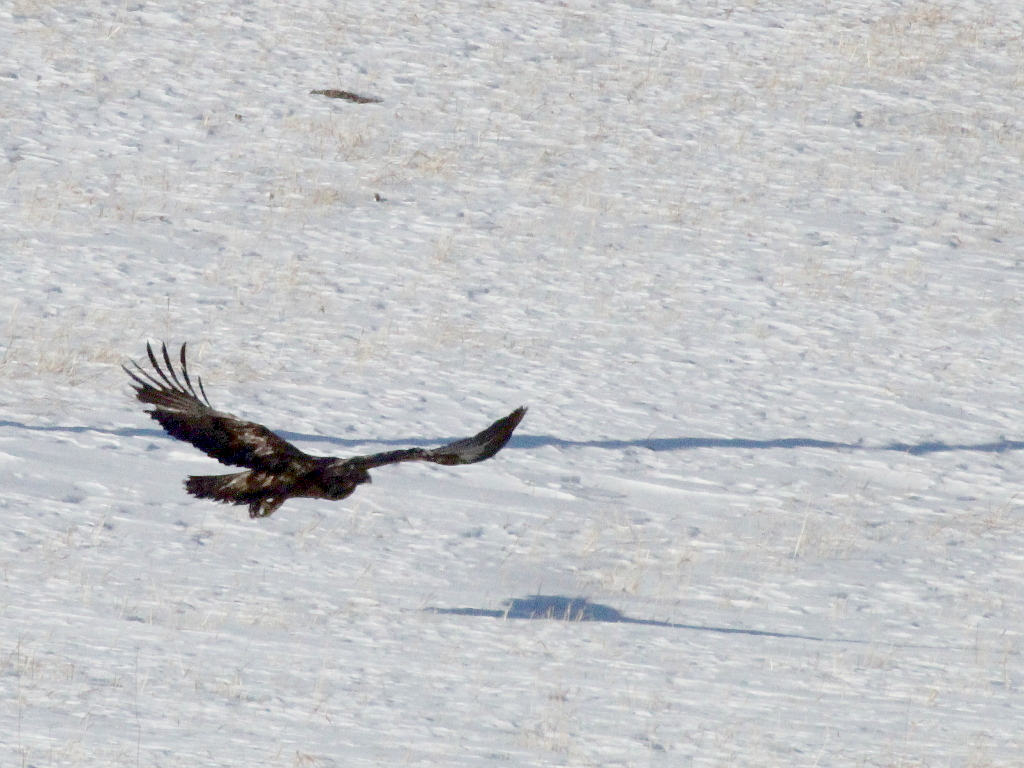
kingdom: Animalia
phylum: Chordata
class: Aves
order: Accipitriformes
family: Accipitridae
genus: Aquila
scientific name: Aquila chrysaetos
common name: Golden eagle
